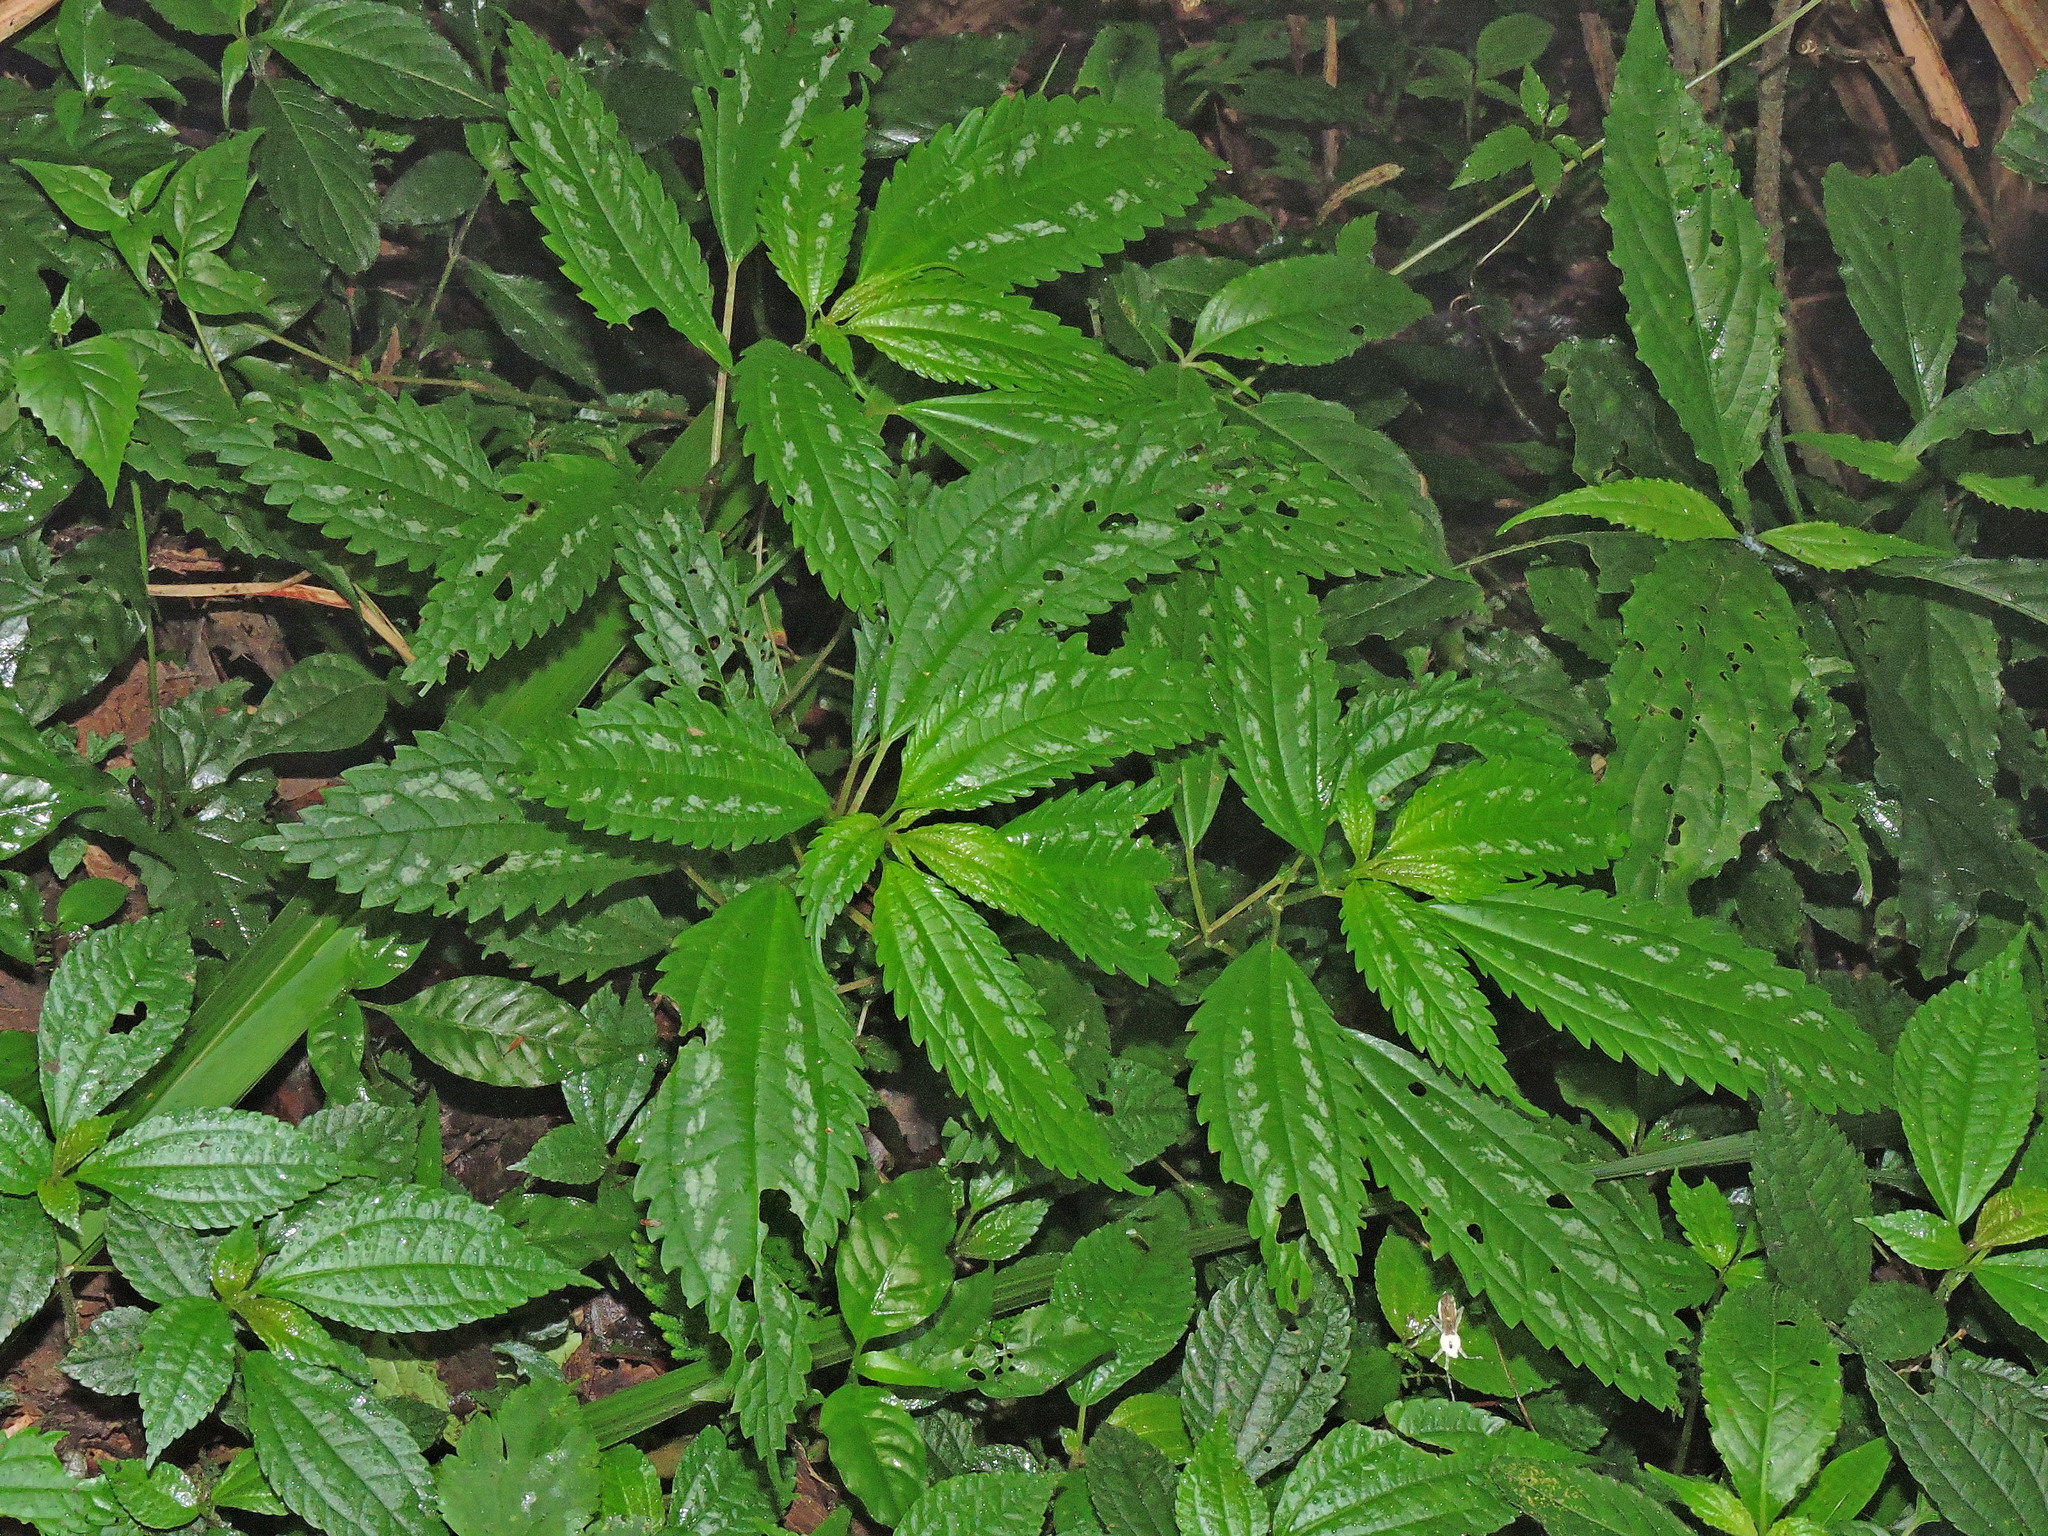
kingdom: Plantae
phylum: Tracheophyta
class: Magnoliopsida
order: Rosales
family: Urticaceae
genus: Pilea
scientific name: Pilea matsudae
